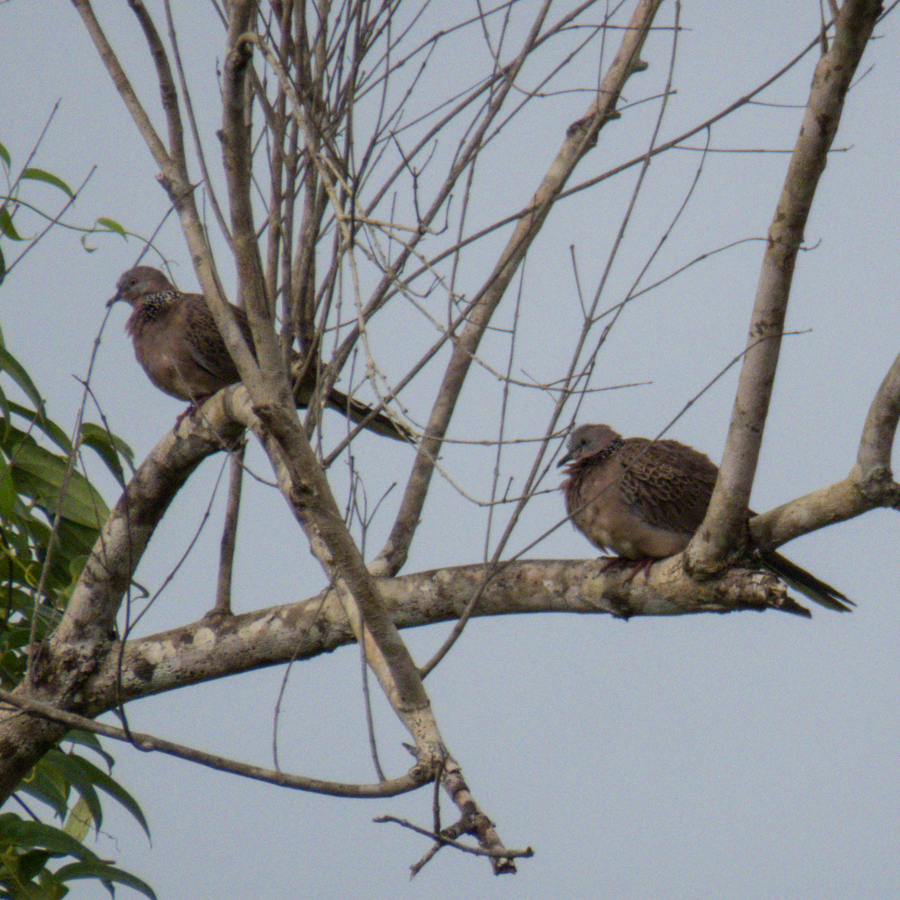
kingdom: Animalia
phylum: Chordata
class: Aves
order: Columbiformes
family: Columbidae
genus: Spilopelia
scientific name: Spilopelia chinensis
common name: Spotted dove
